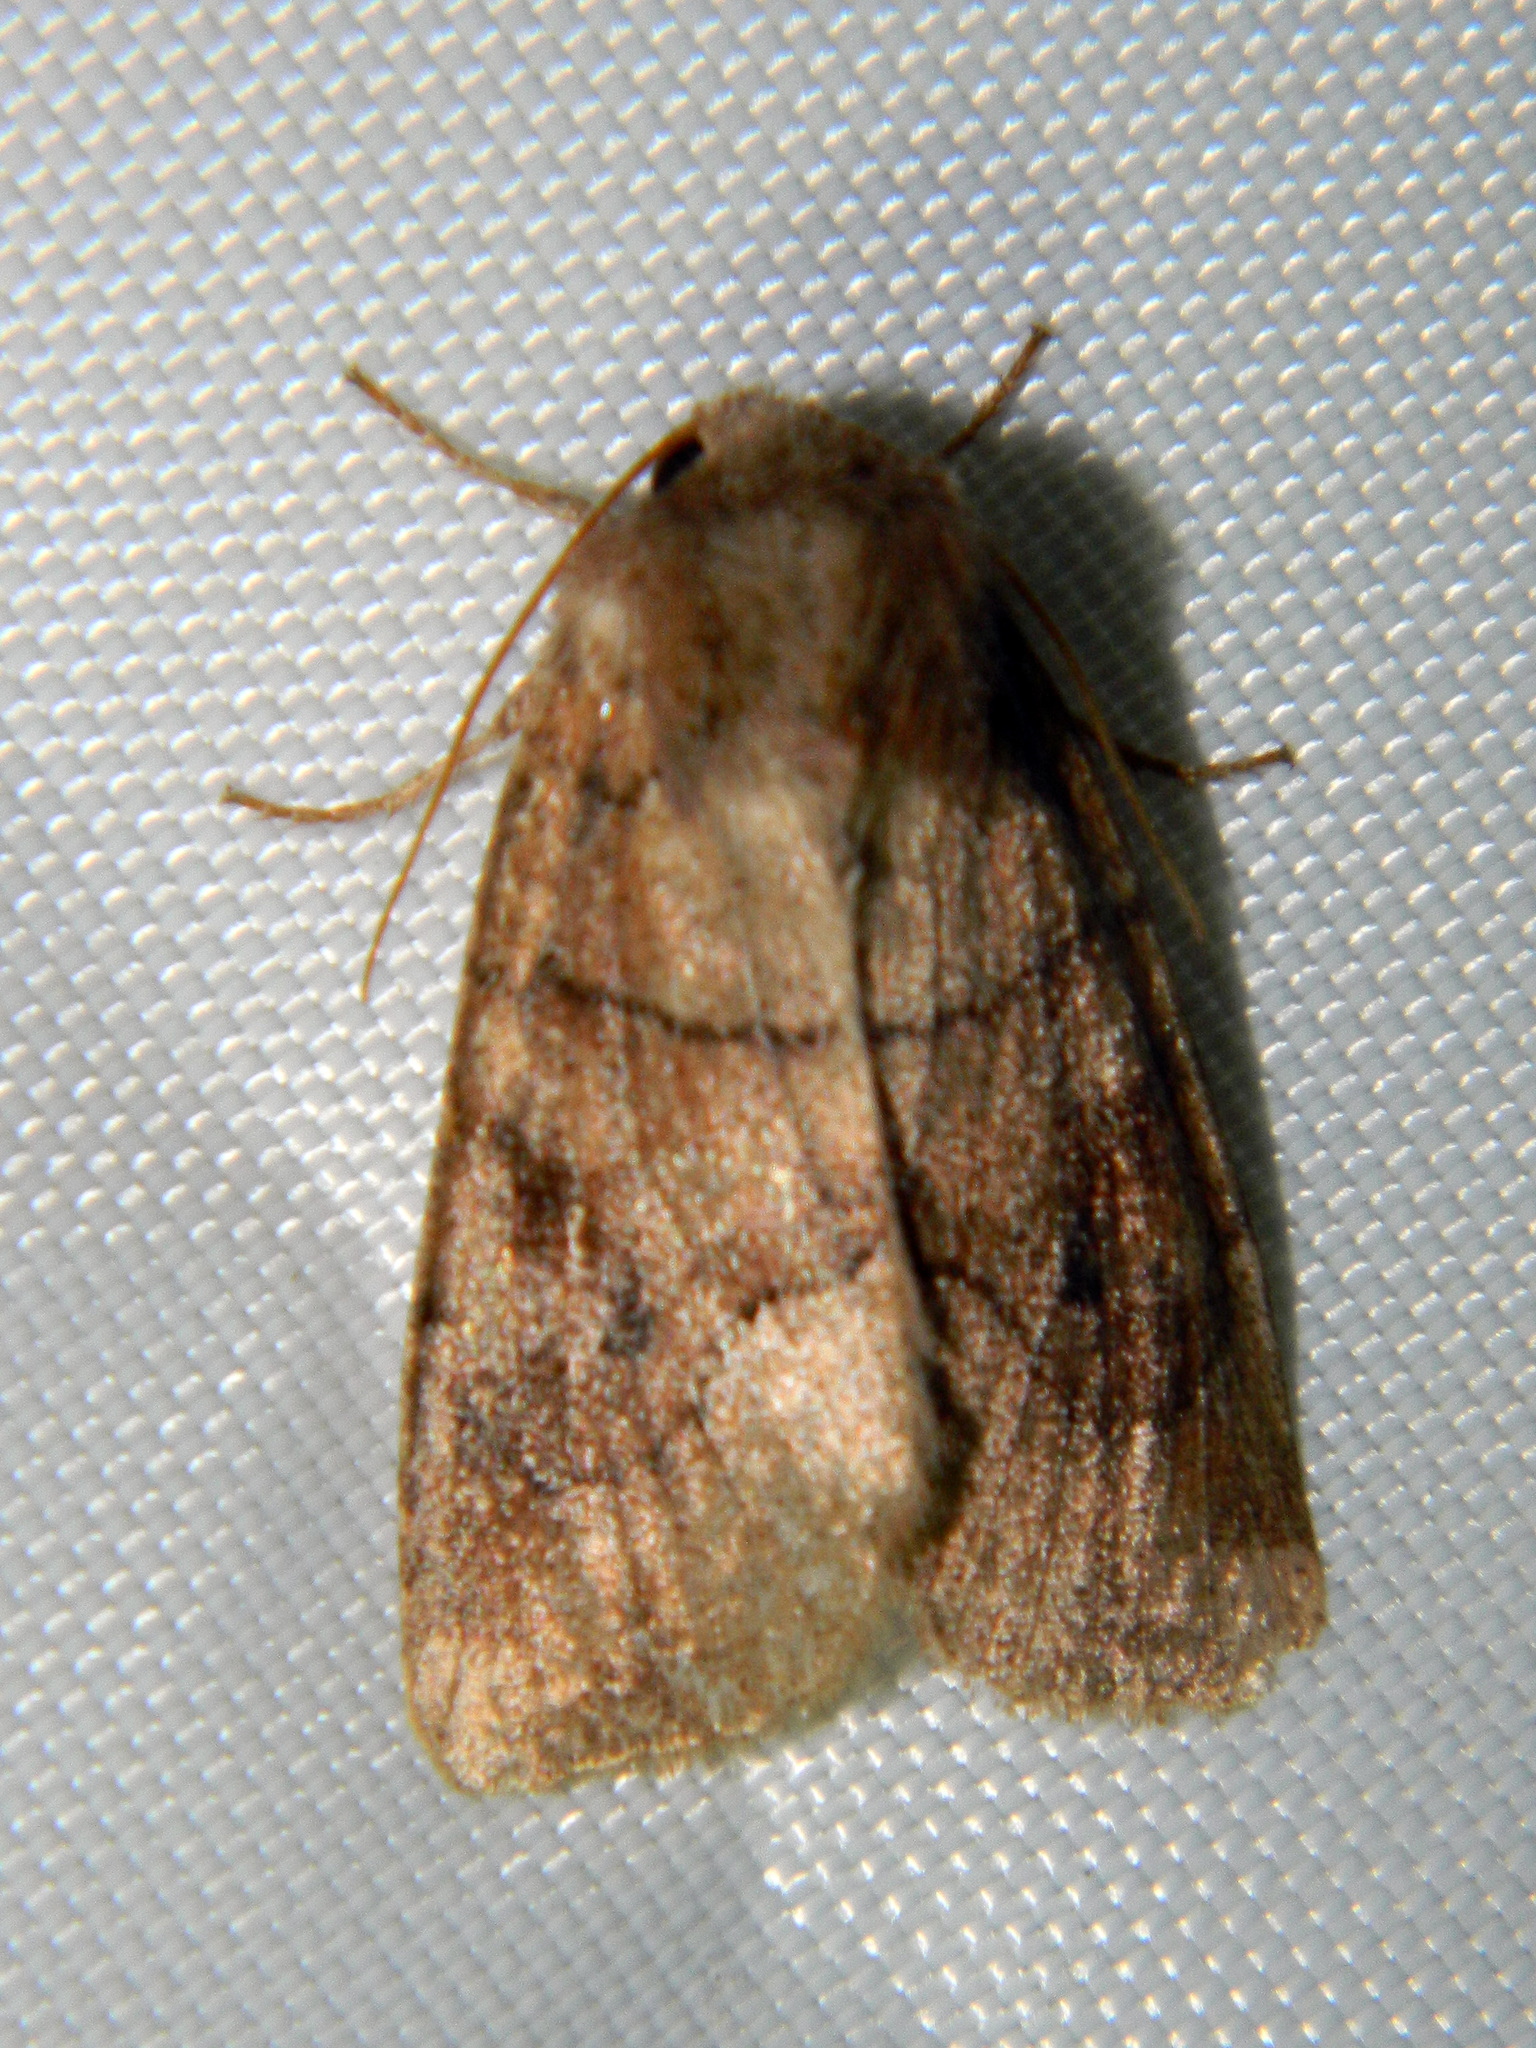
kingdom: Animalia
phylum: Arthropoda
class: Insecta
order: Lepidoptera
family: Noctuidae
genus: Crocigrapha
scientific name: Crocigrapha normani
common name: Norman's quaker
